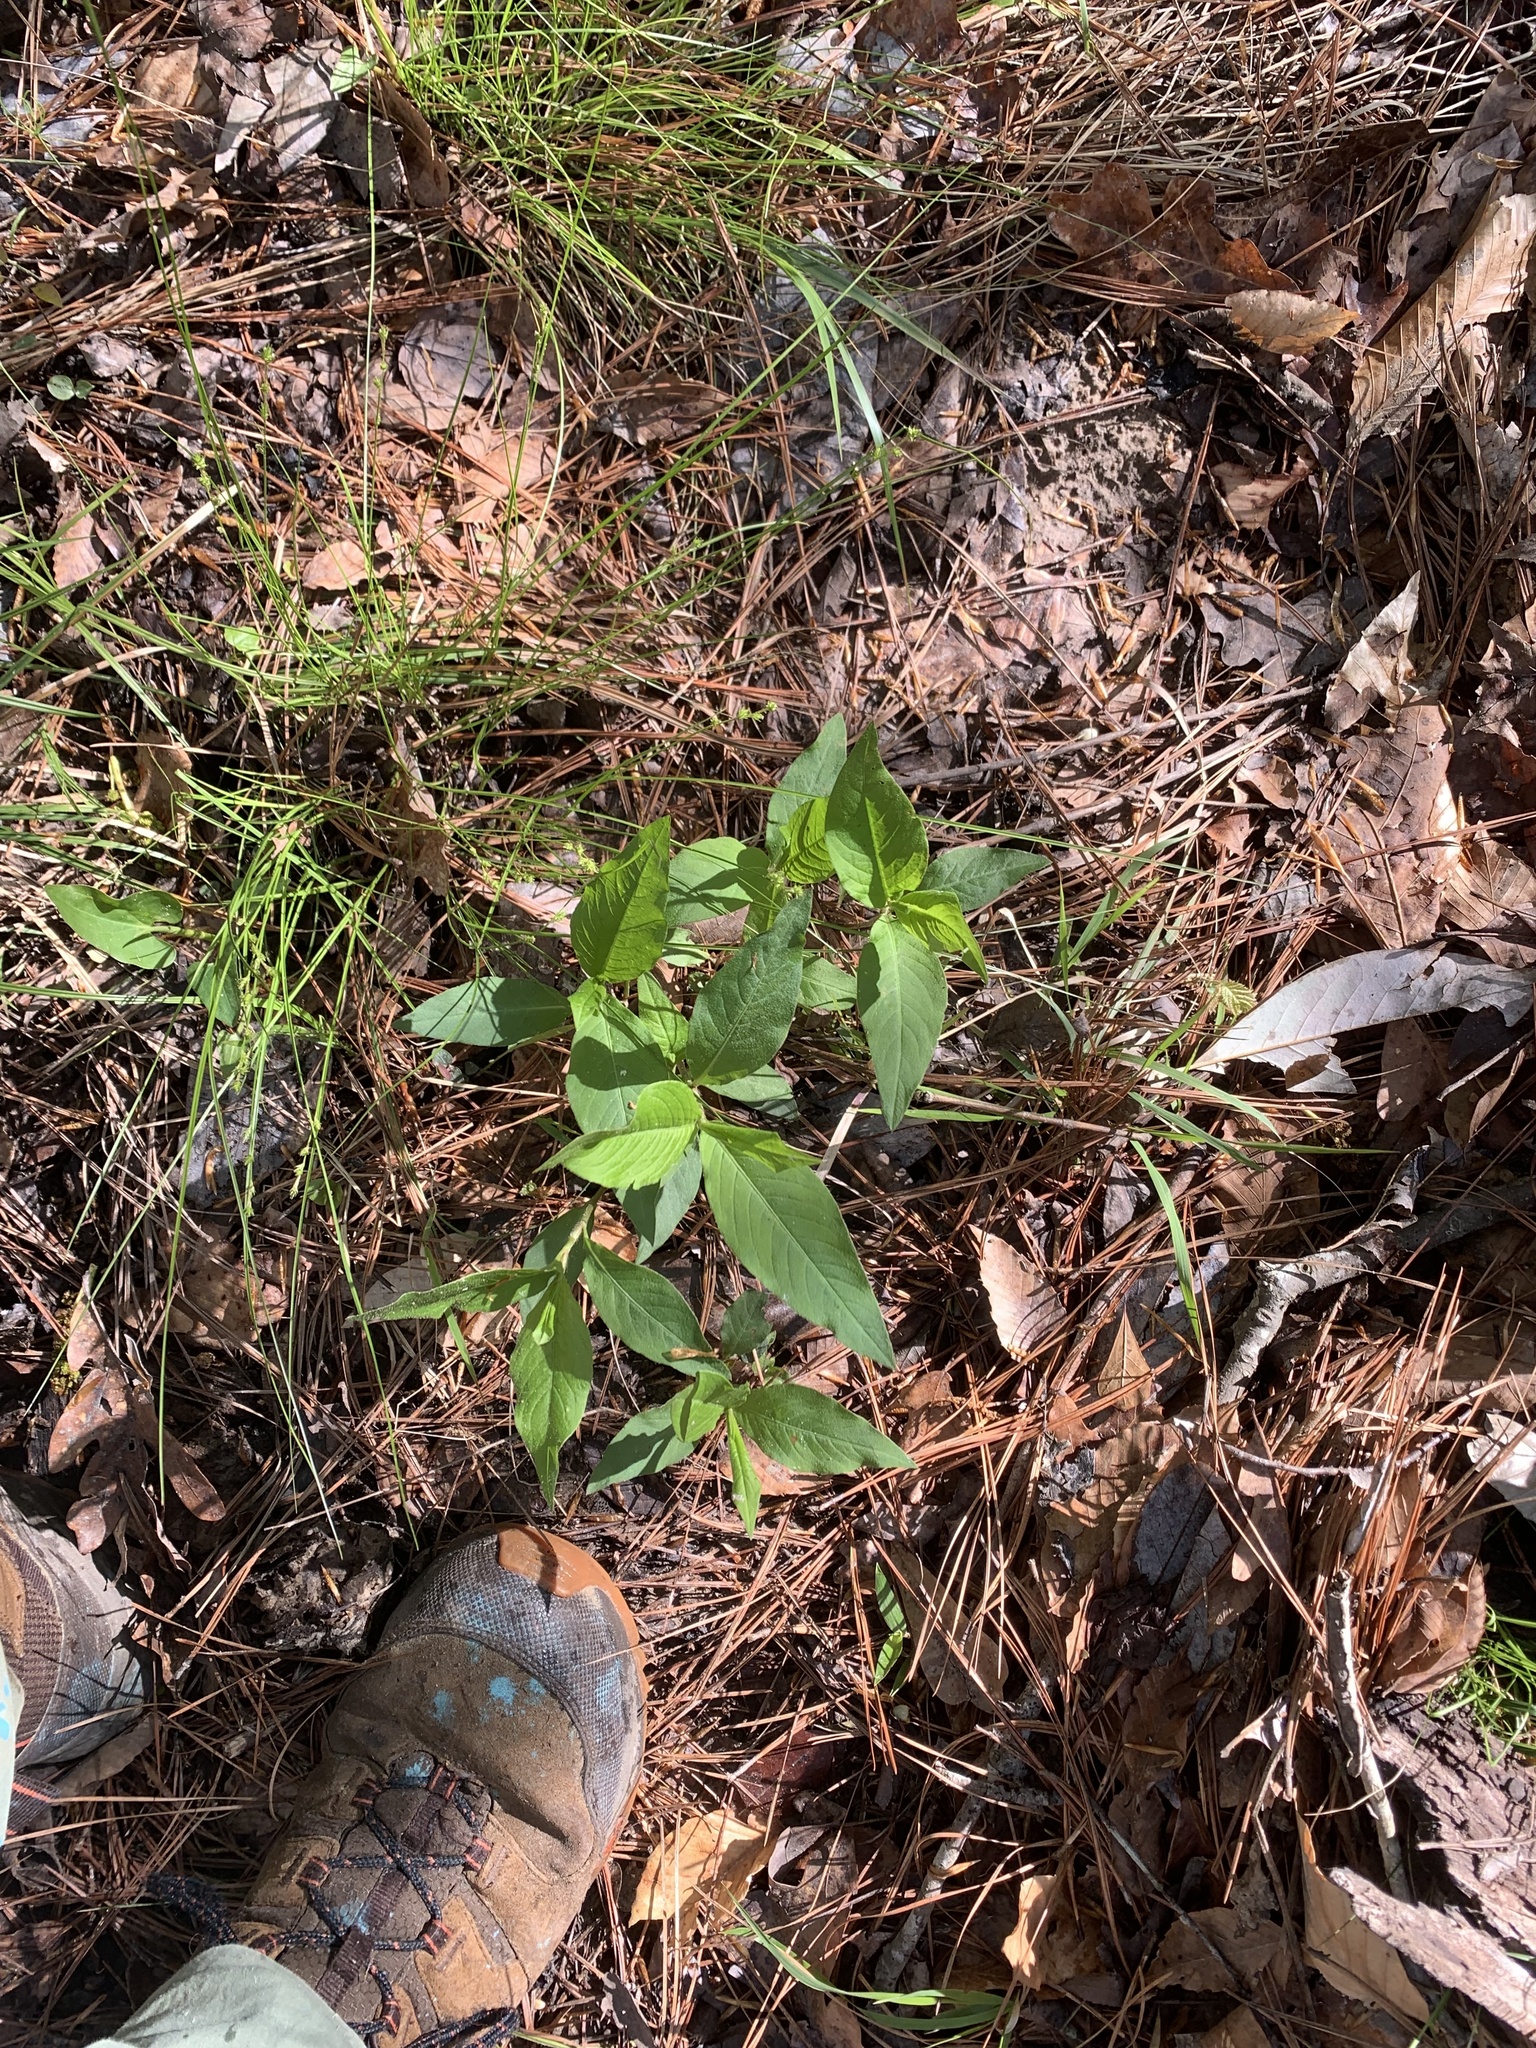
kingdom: Plantae
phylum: Tracheophyta
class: Magnoliopsida
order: Caryophyllales
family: Polygonaceae
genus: Persicaria
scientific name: Persicaria virginiana
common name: Jumpseed
